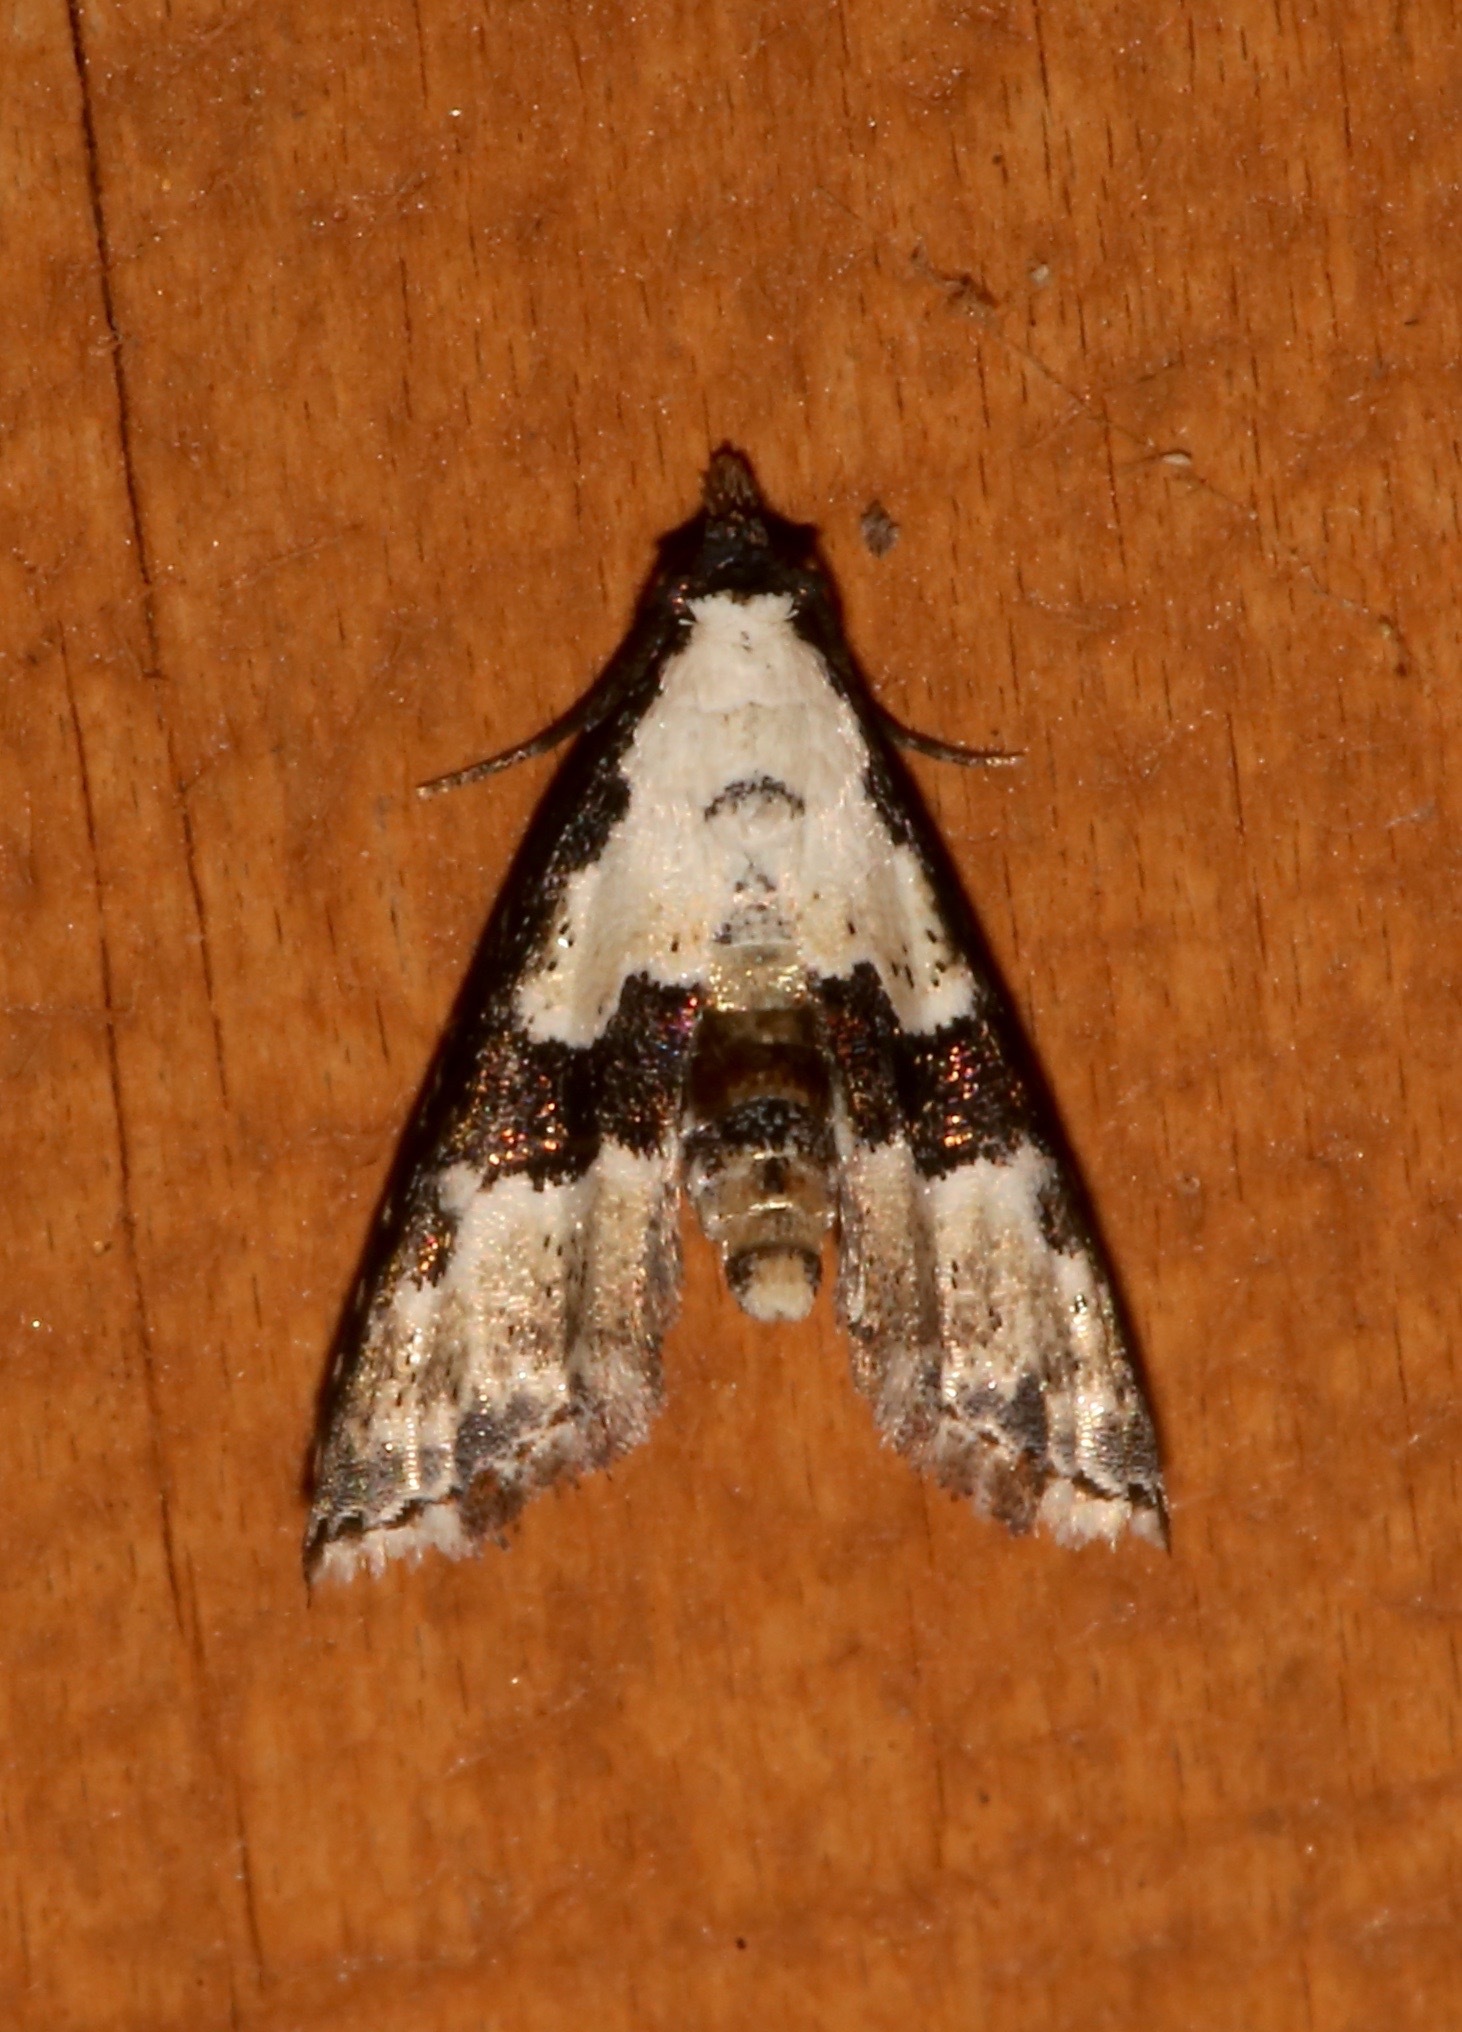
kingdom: Animalia
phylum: Arthropoda
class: Insecta
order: Lepidoptera
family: Noctuidae
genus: Nigetia
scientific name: Nigetia formosalis
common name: Thin-winged owlet
